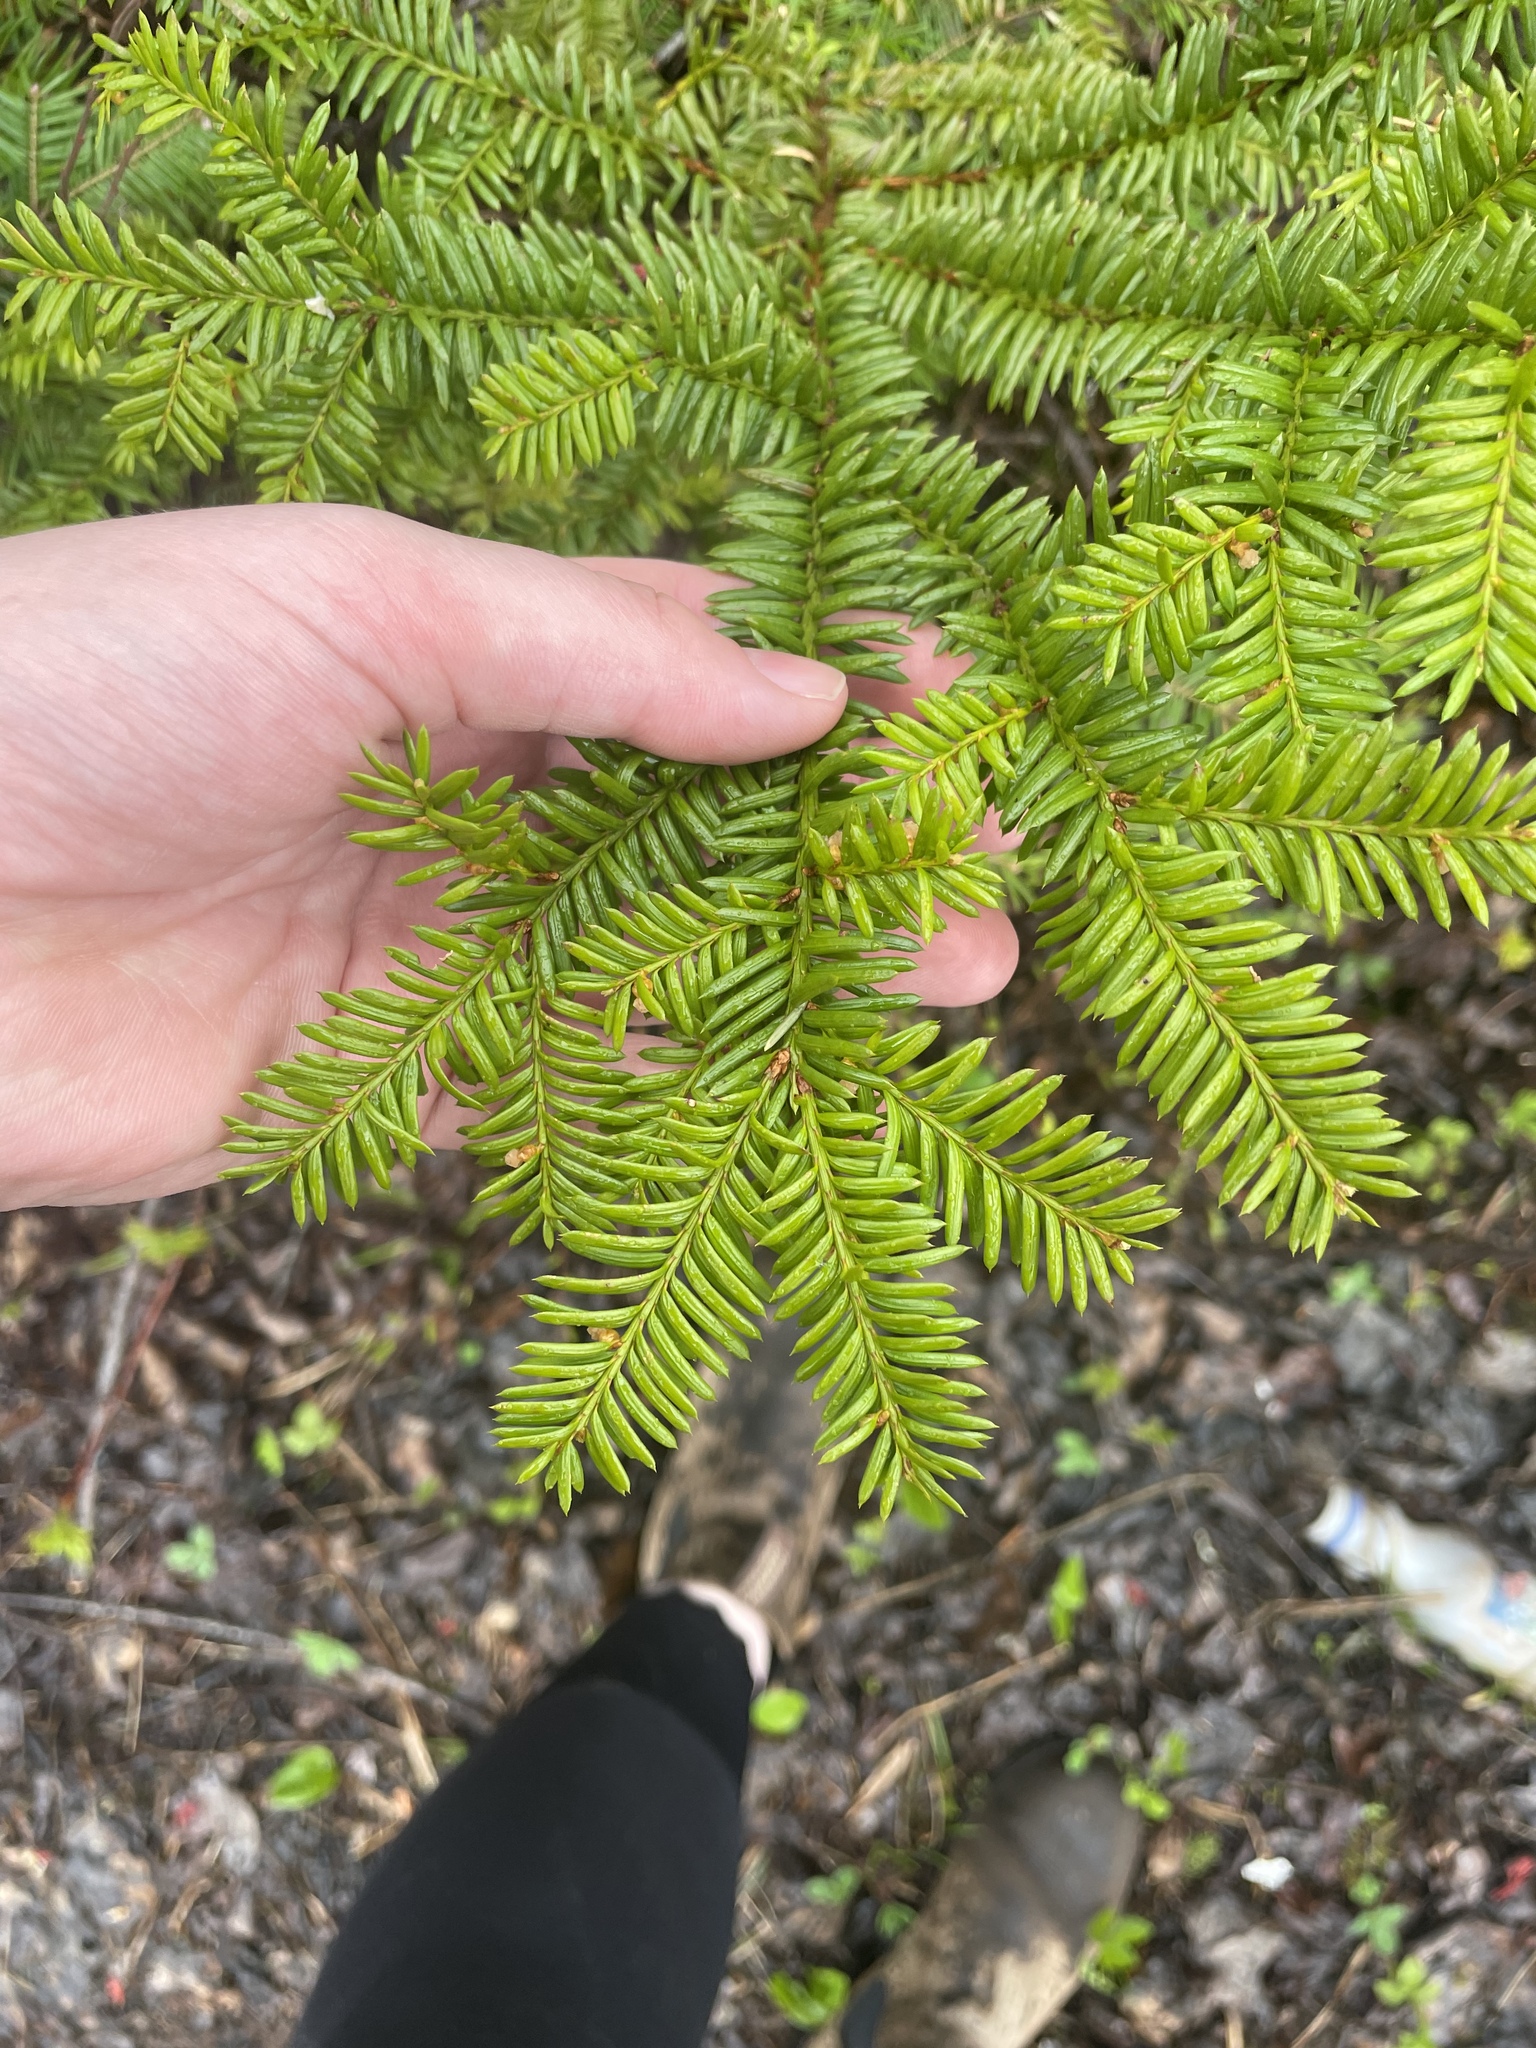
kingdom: Plantae
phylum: Tracheophyta
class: Pinopsida
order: Pinales
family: Taxaceae
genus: Taxus
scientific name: Taxus canadensis
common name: American yew
